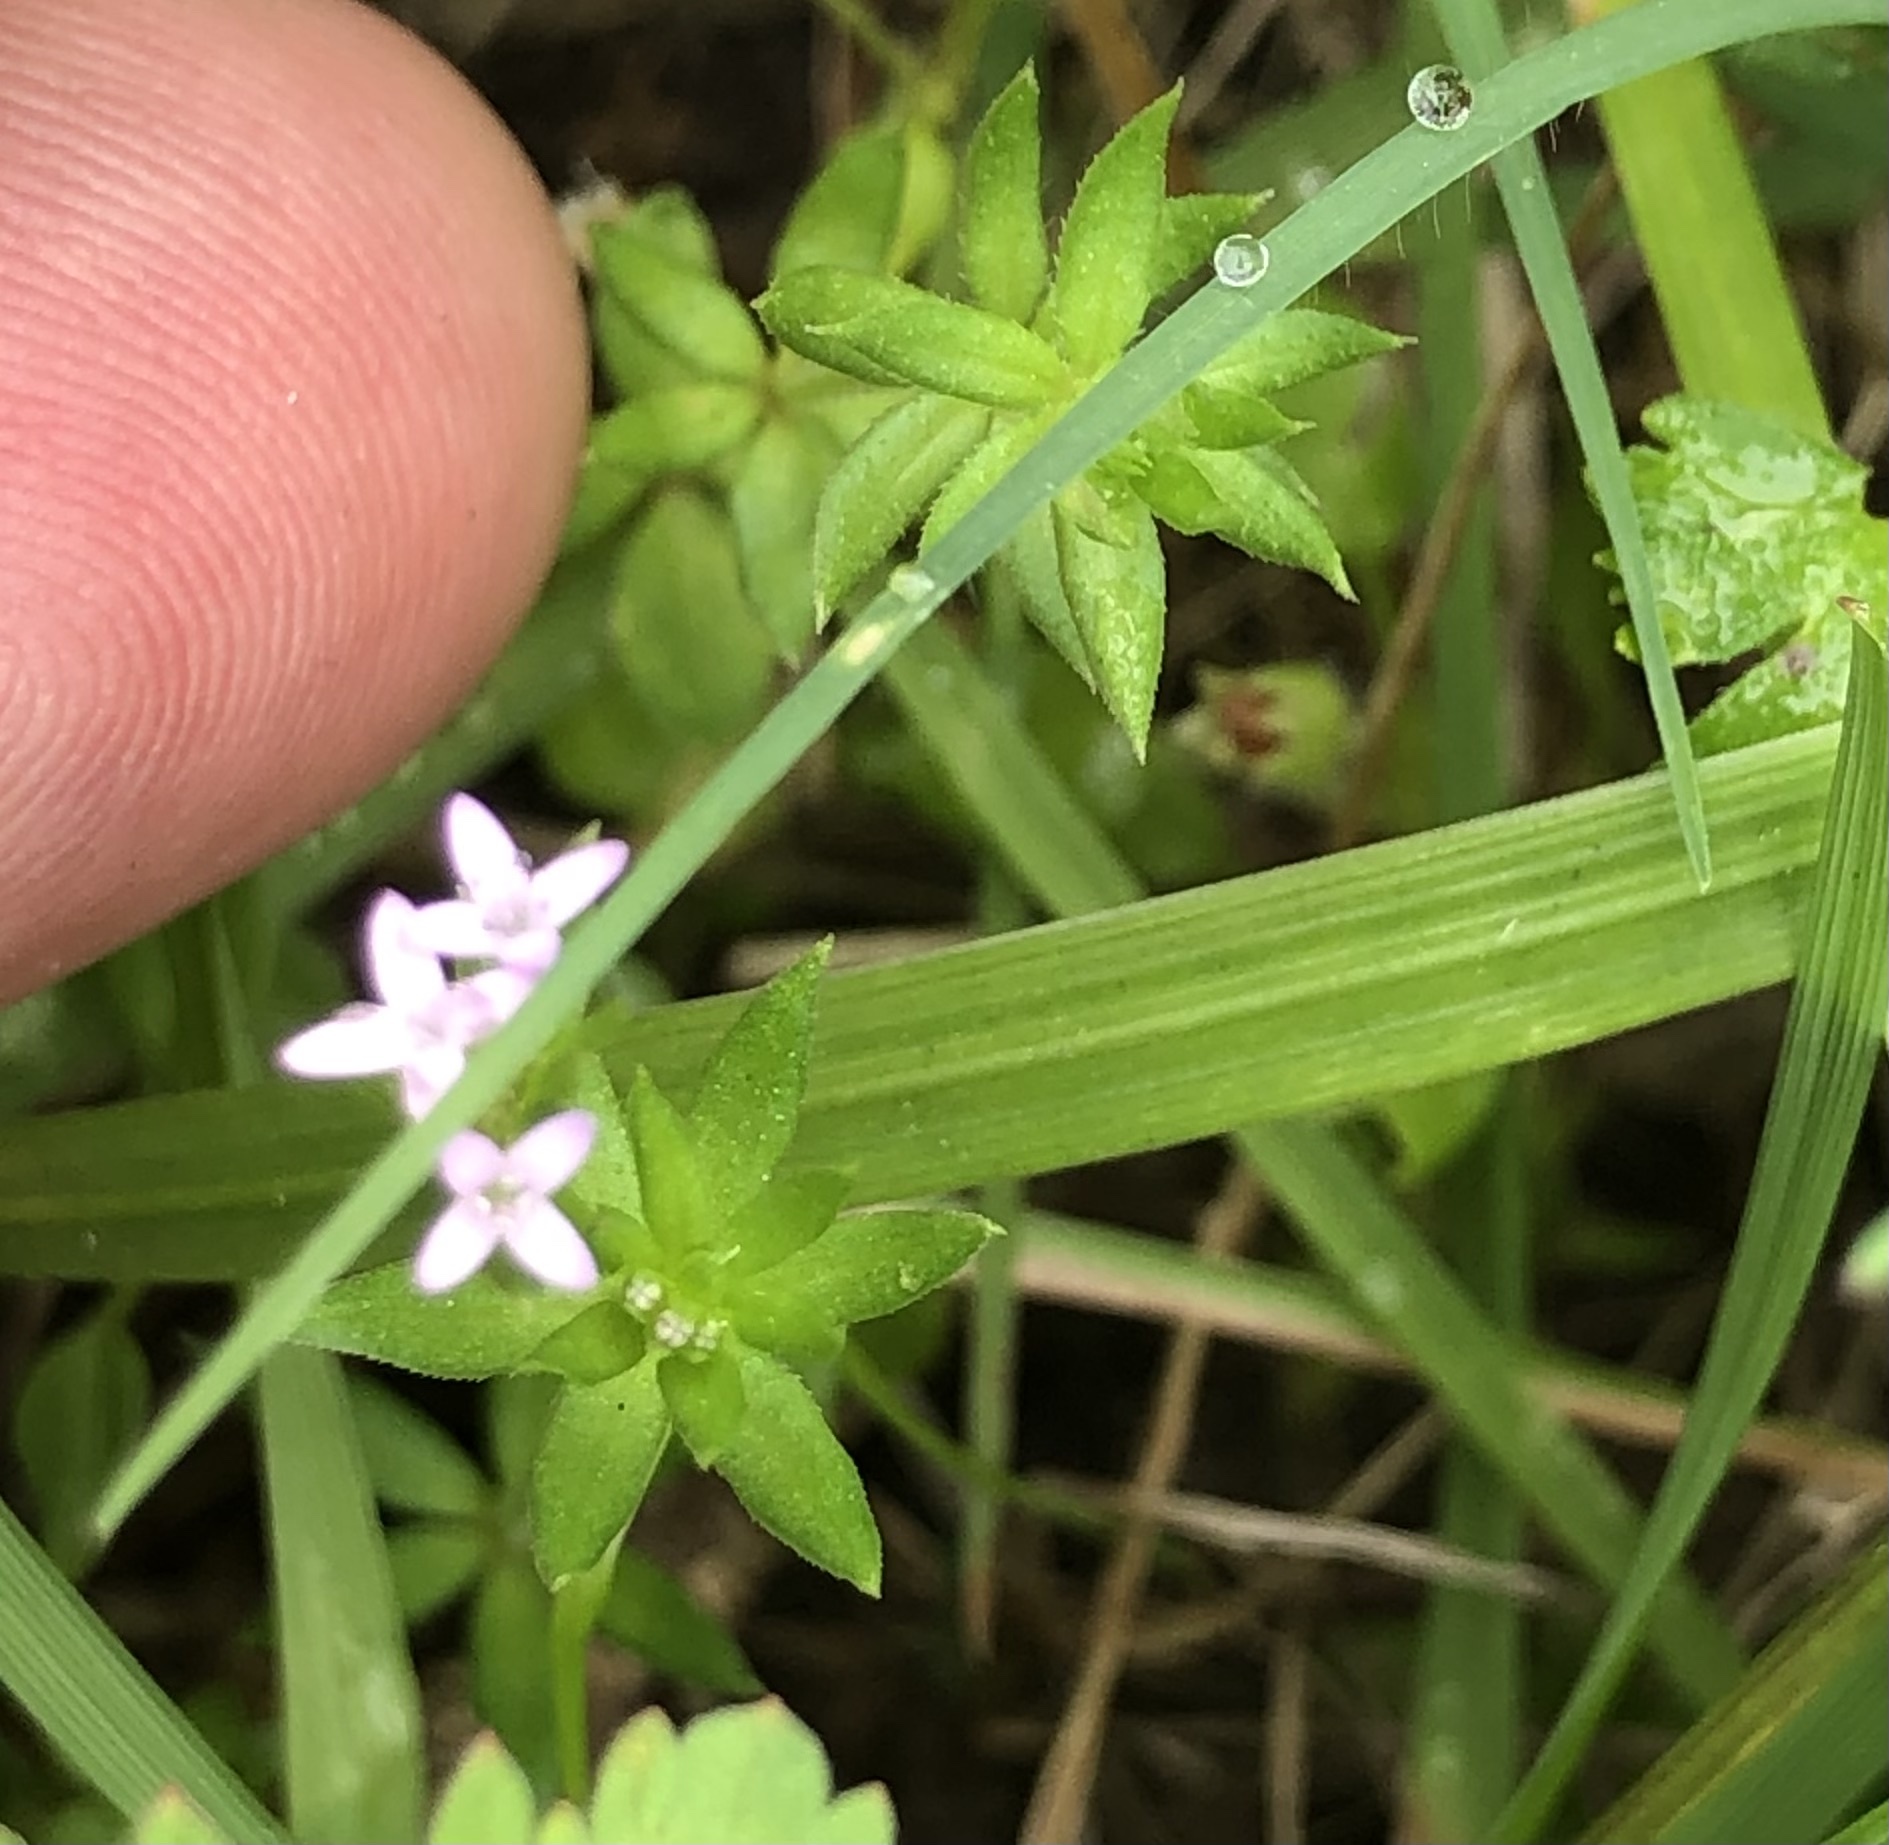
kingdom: Plantae
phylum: Tracheophyta
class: Magnoliopsida
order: Gentianales
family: Rubiaceae
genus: Sherardia
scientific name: Sherardia arvensis
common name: Field madder
